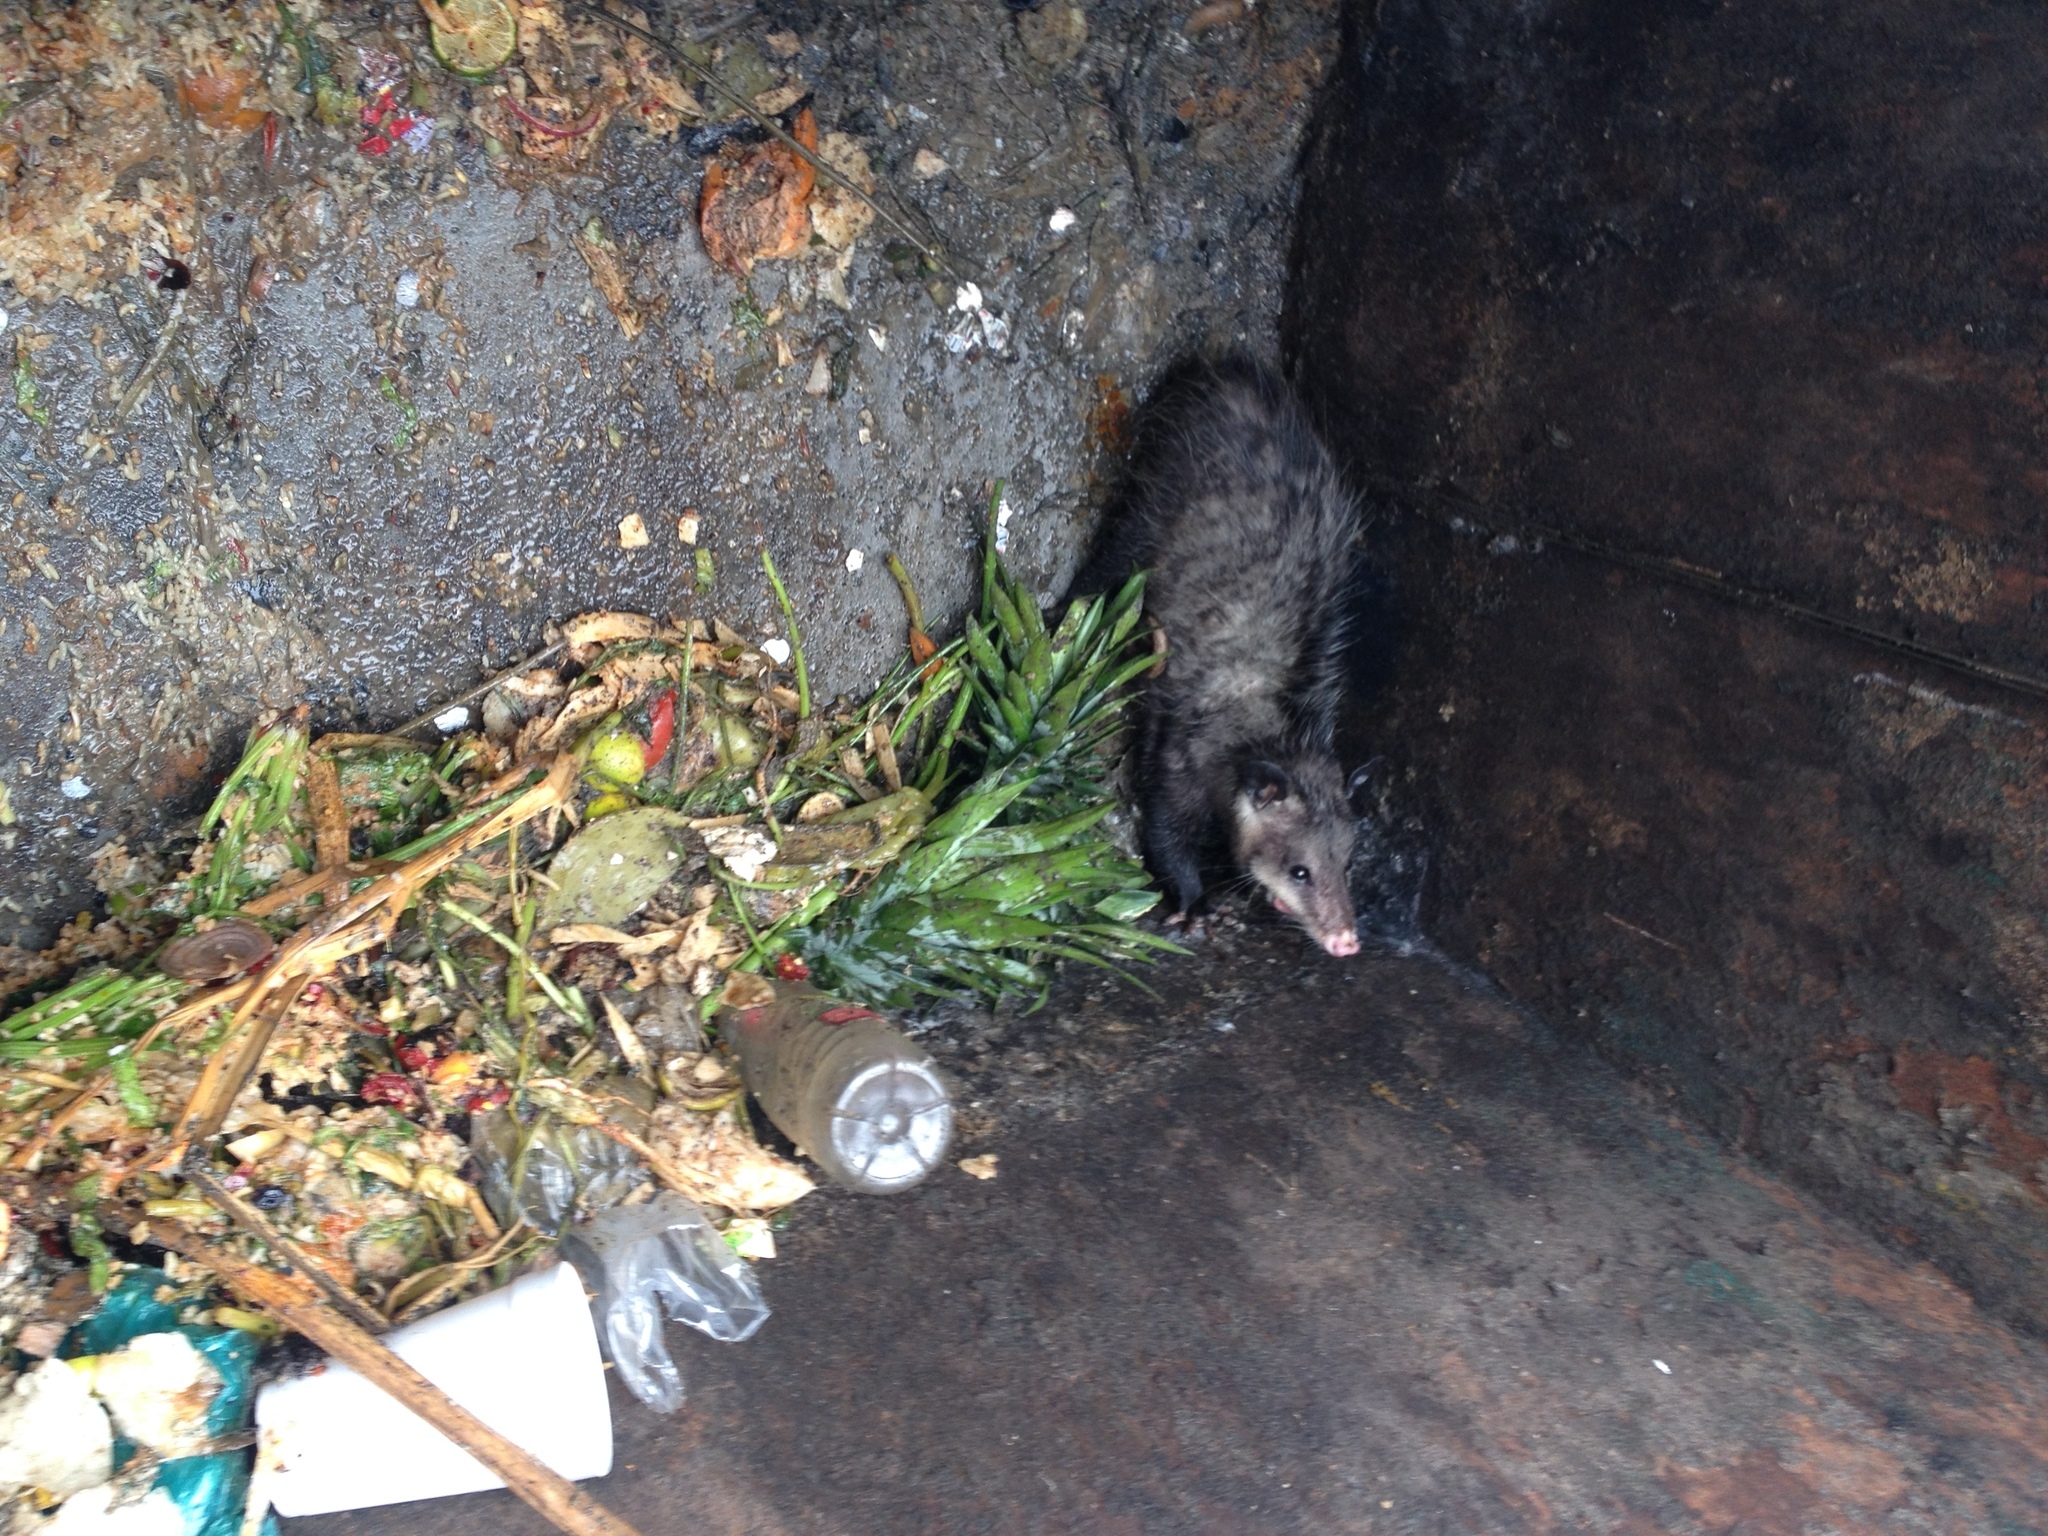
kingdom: Animalia
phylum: Chordata
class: Mammalia
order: Didelphimorphia
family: Didelphidae
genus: Didelphis
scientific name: Didelphis virginiana
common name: Virginia opossum
